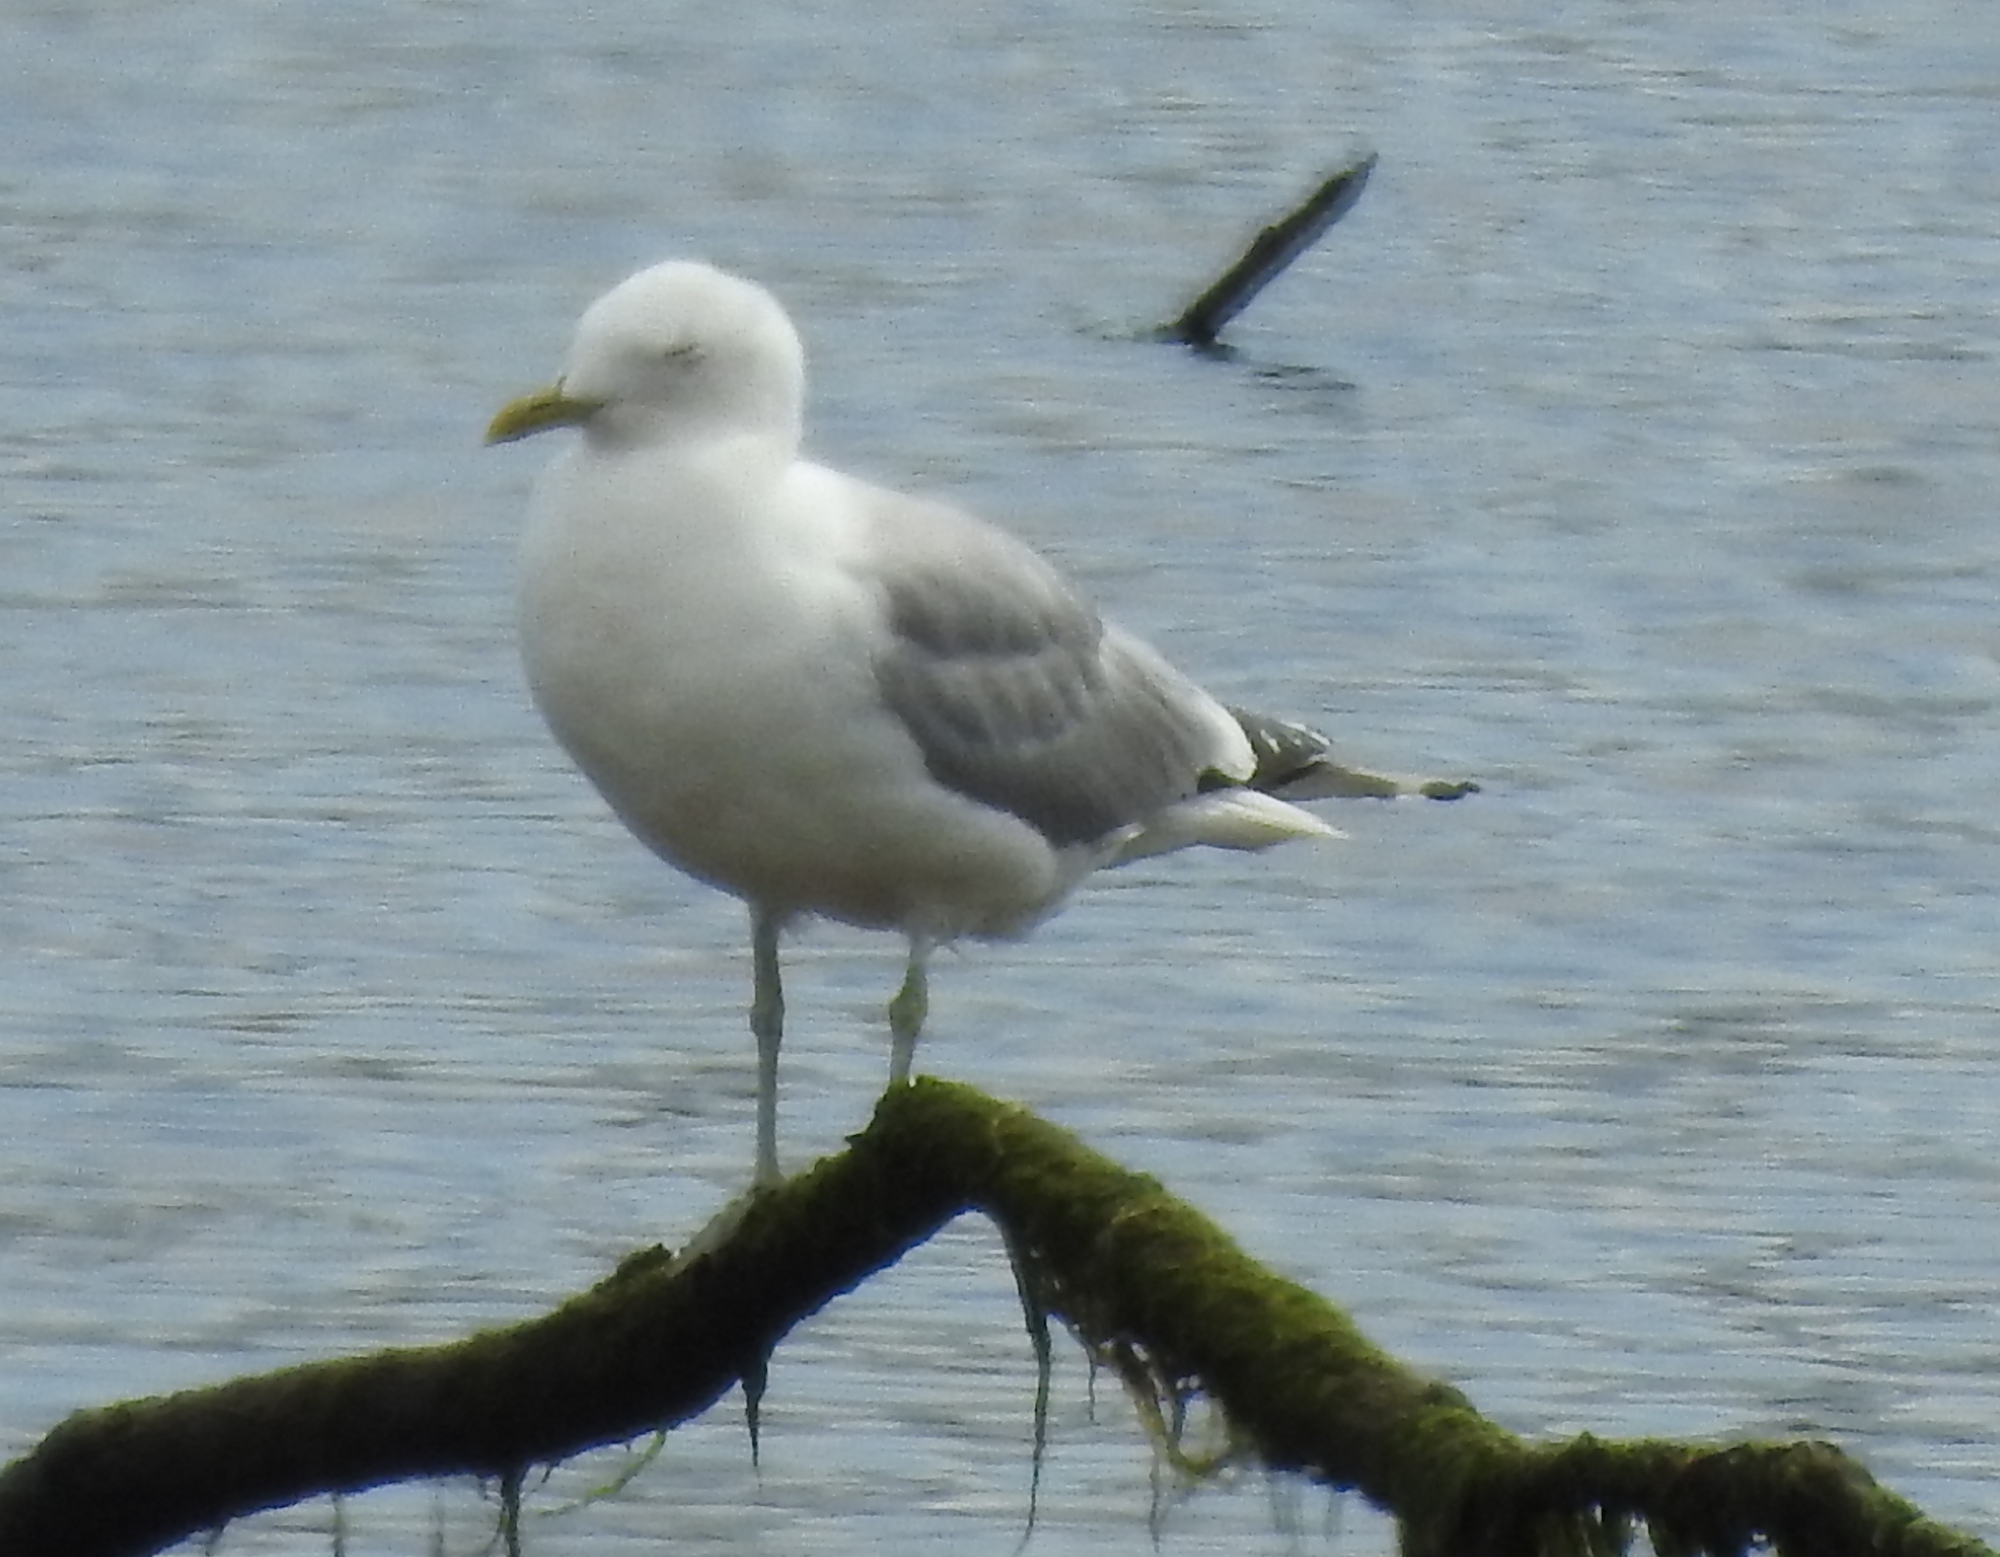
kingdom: Animalia
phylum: Chordata
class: Aves
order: Charadriiformes
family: Laridae
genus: Larus
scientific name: Larus canus
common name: Mew gull
